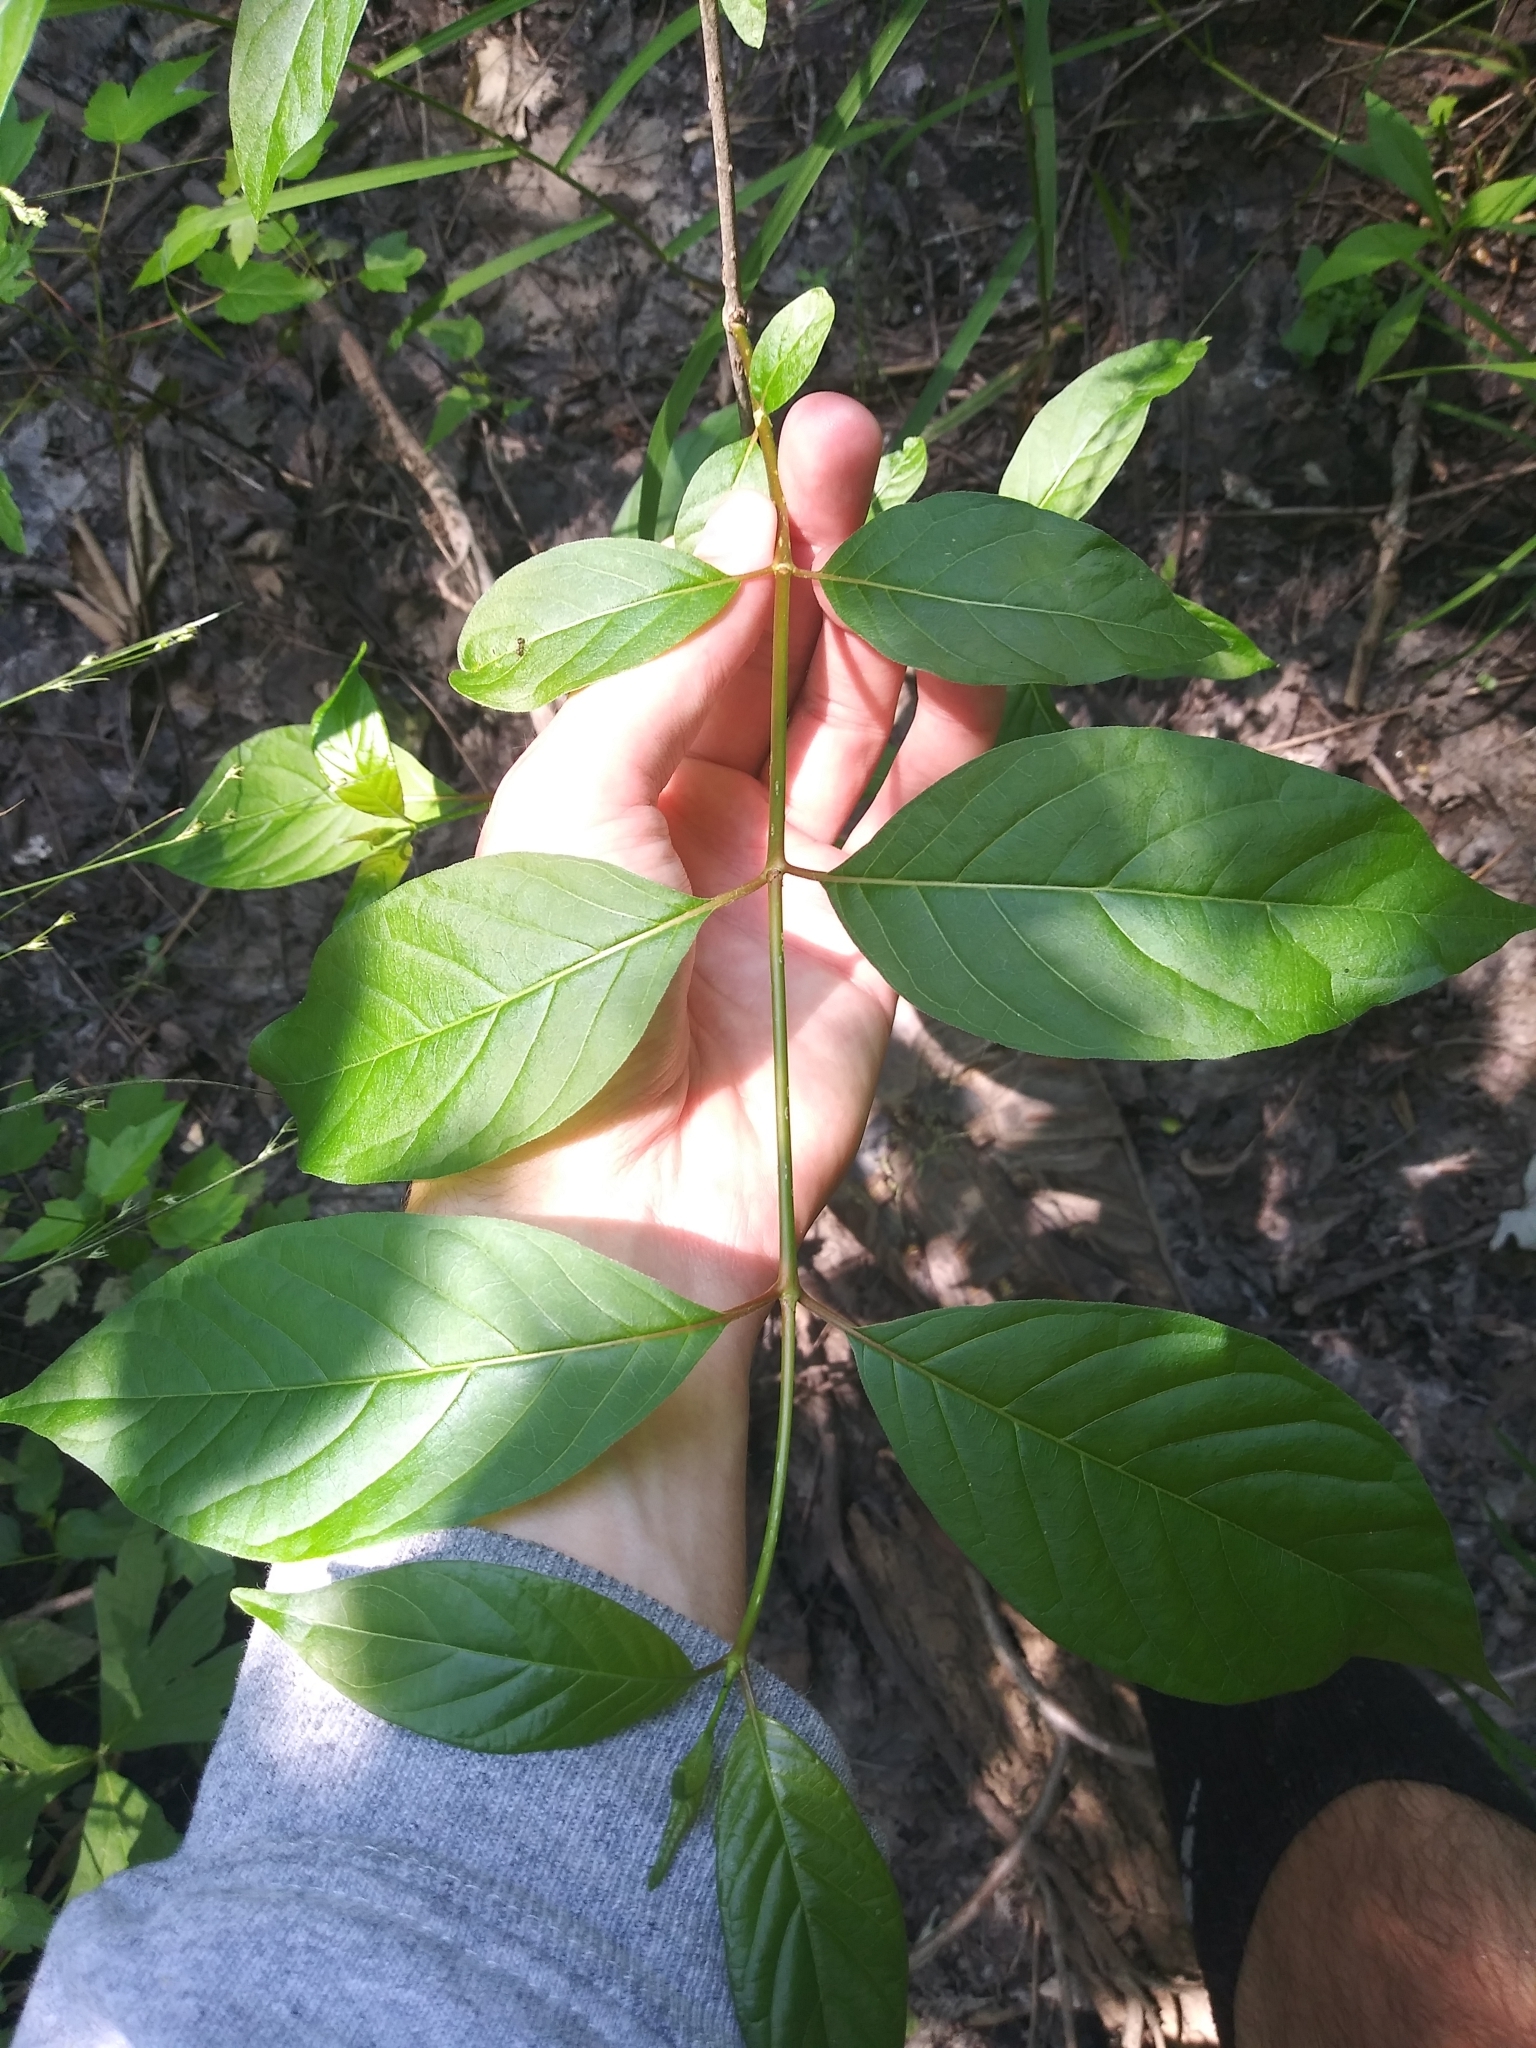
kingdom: Plantae
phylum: Tracheophyta
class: Magnoliopsida
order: Gentianales
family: Rubiaceae
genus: Cephalanthus
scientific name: Cephalanthus occidentalis
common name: Button-willow
